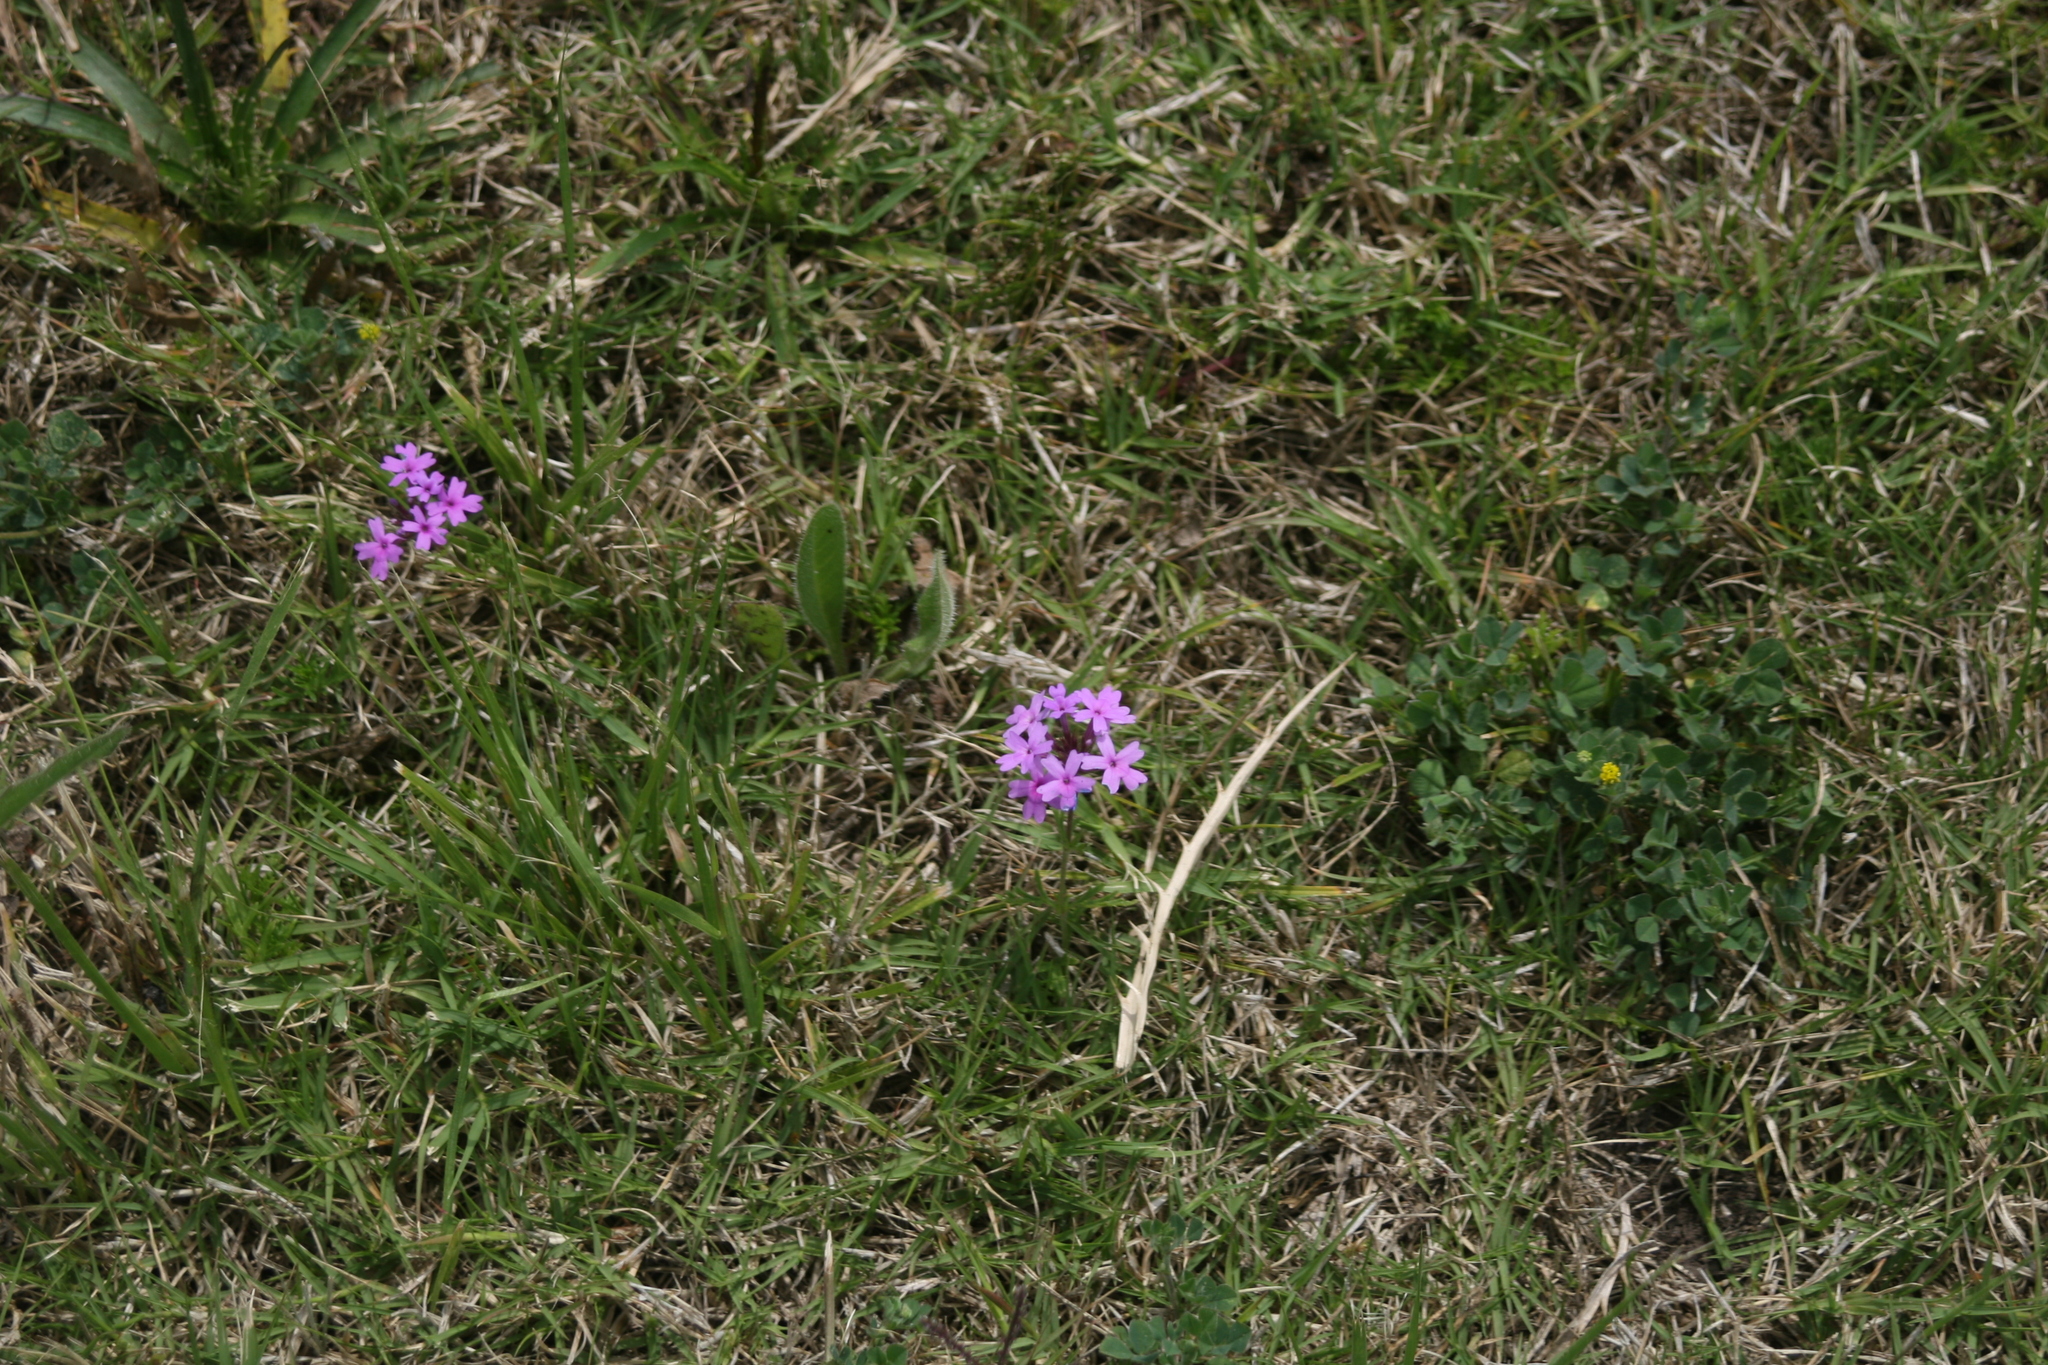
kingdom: Plantae
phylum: Tracheophyta
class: Magnoliopsida
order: Lamiales
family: Verbenaceae
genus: Verbena
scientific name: Verbena selloi
